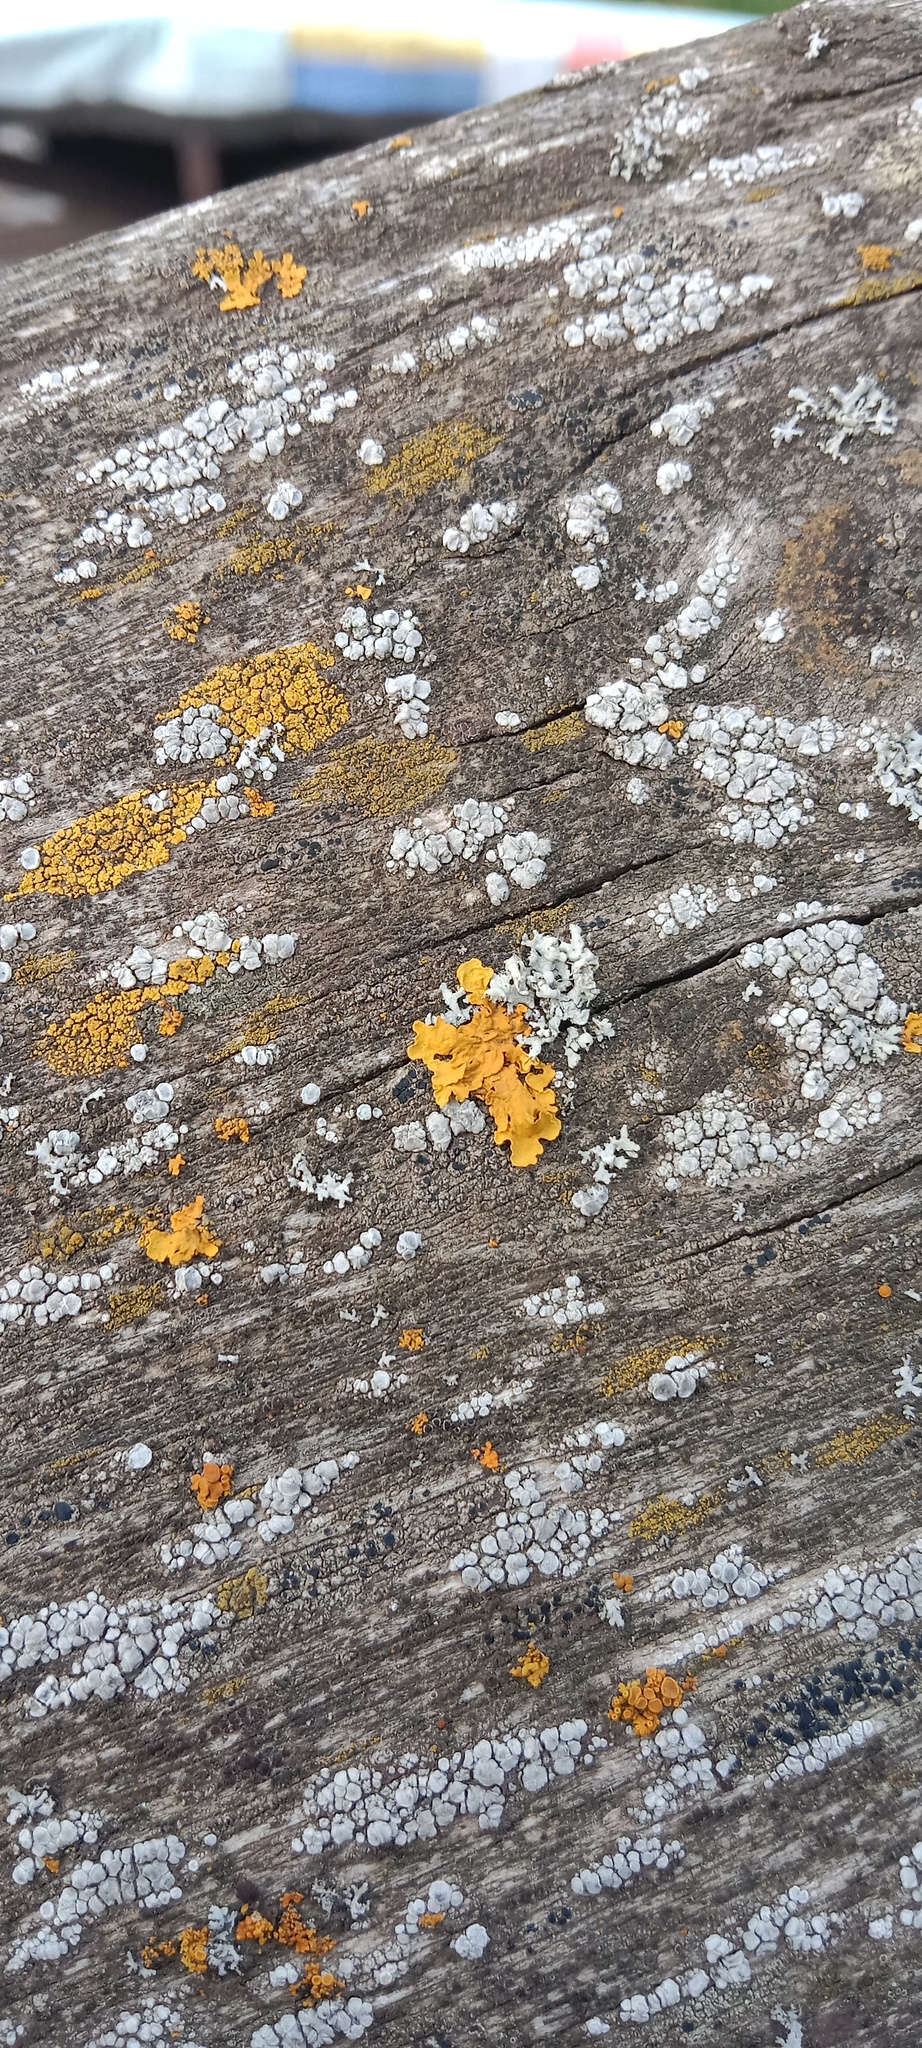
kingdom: Fungi
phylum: Ascomycota
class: Lecanoromycetes
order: Teloschistales
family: Teloschistaceae
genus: Xanthoria
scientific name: Xanthoria parietina
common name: Common orange lichen
